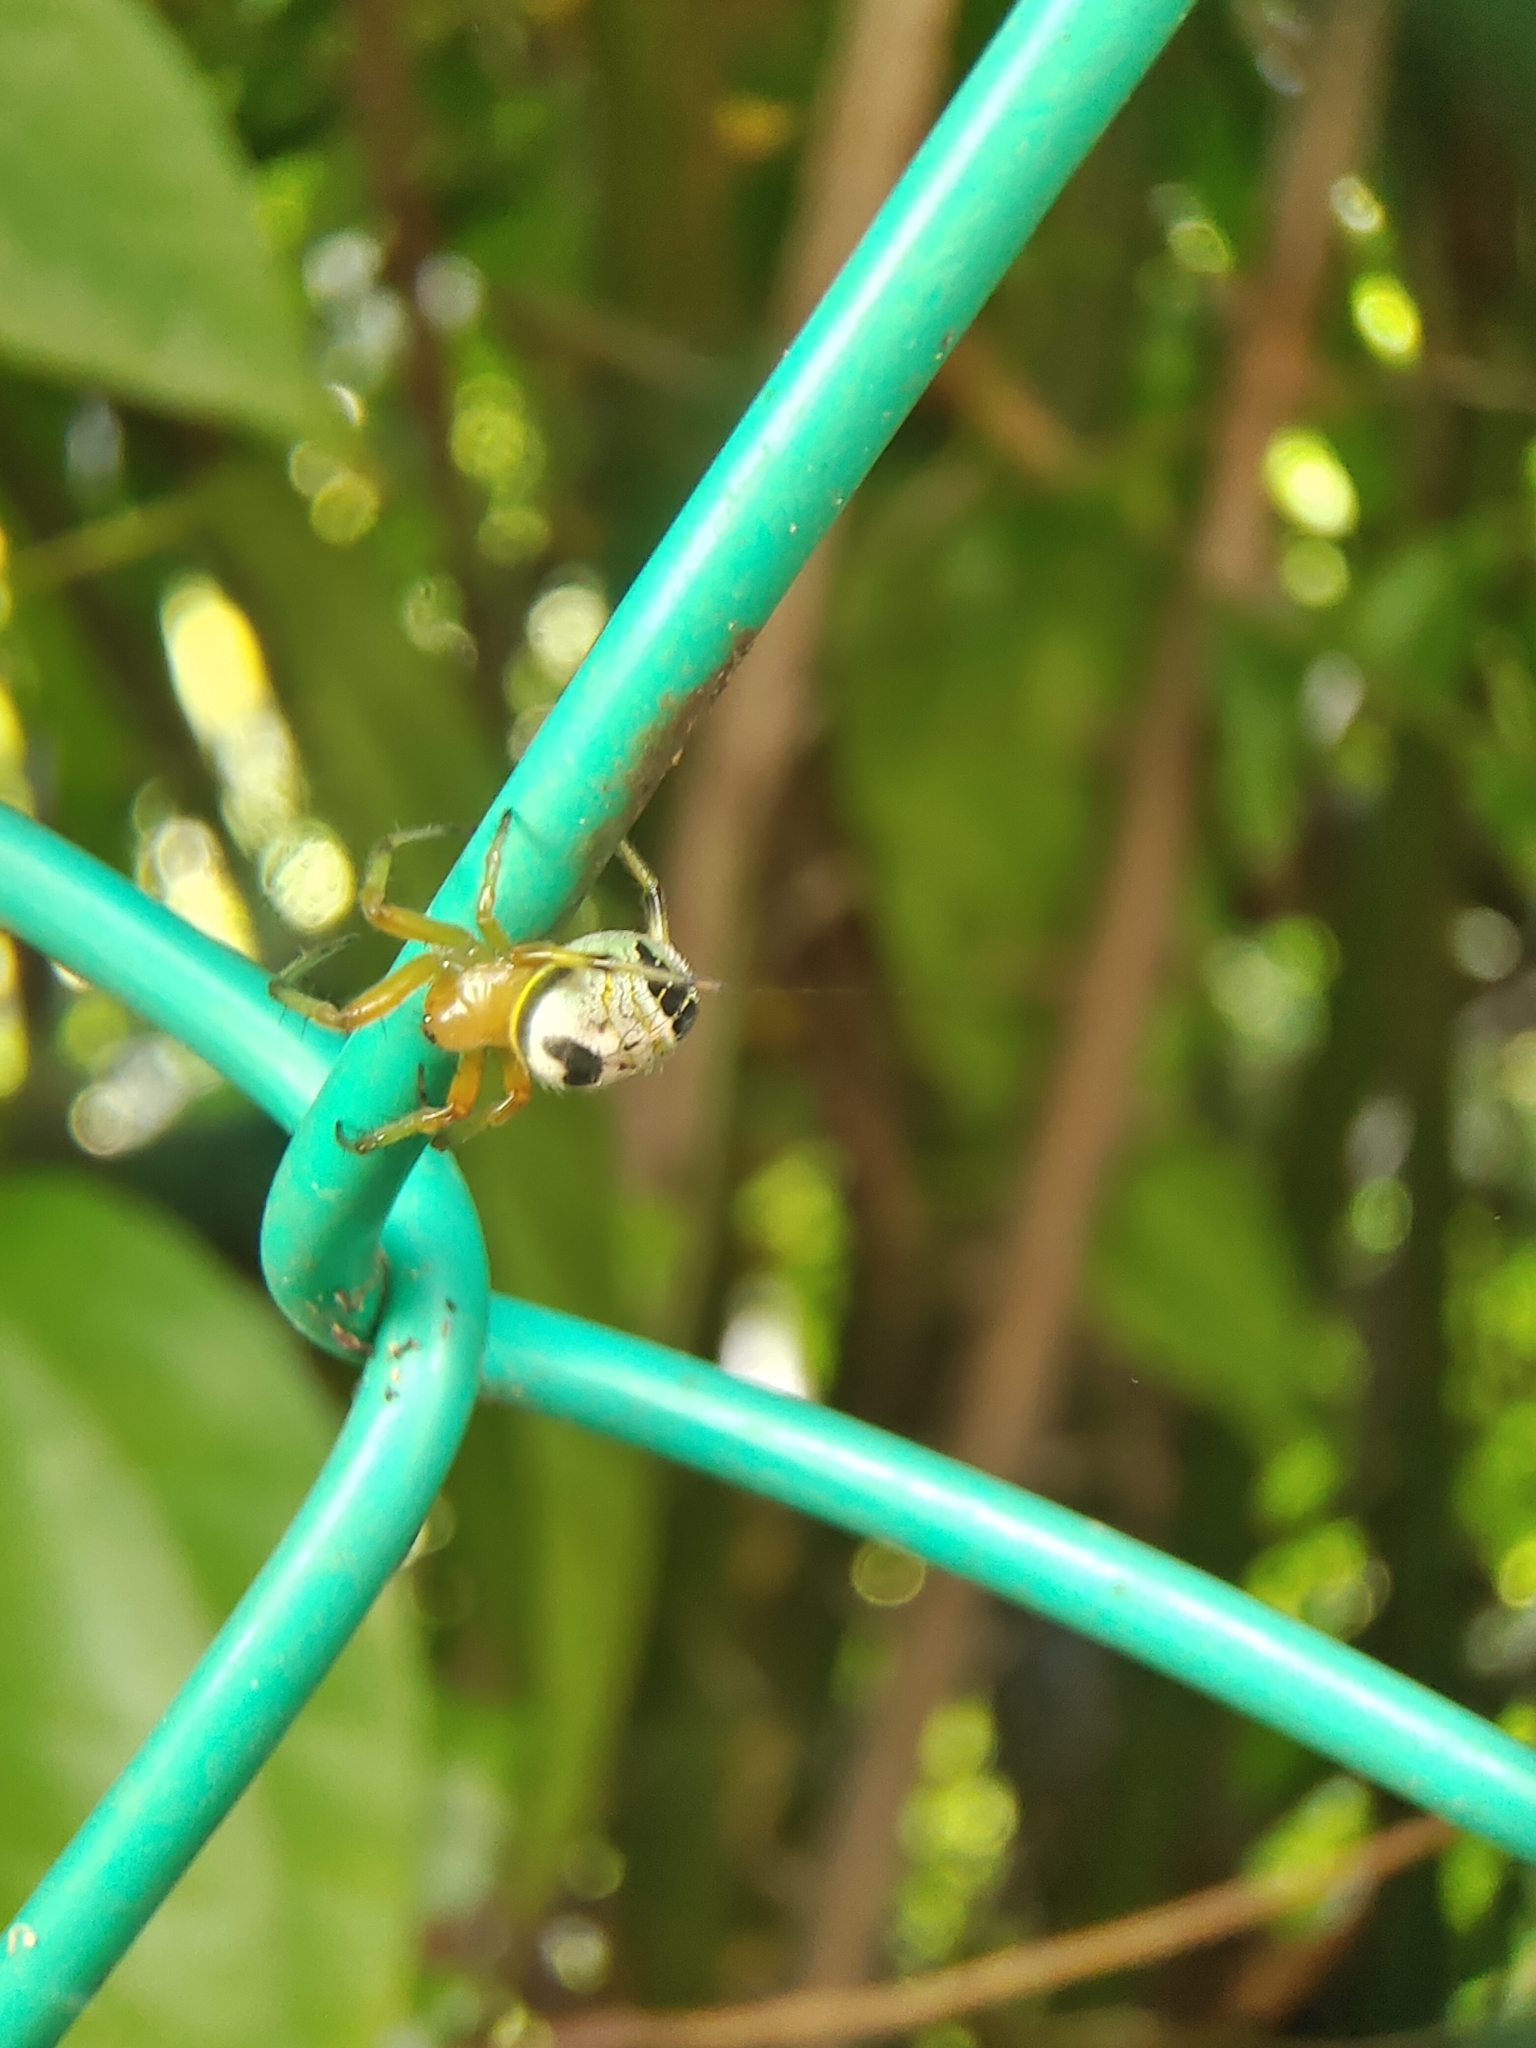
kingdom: Animalia
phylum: Arthropoda
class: Arachnida
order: Araneae
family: Araneidae
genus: Bijoaraneus
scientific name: Bijoaraneus mitificus
